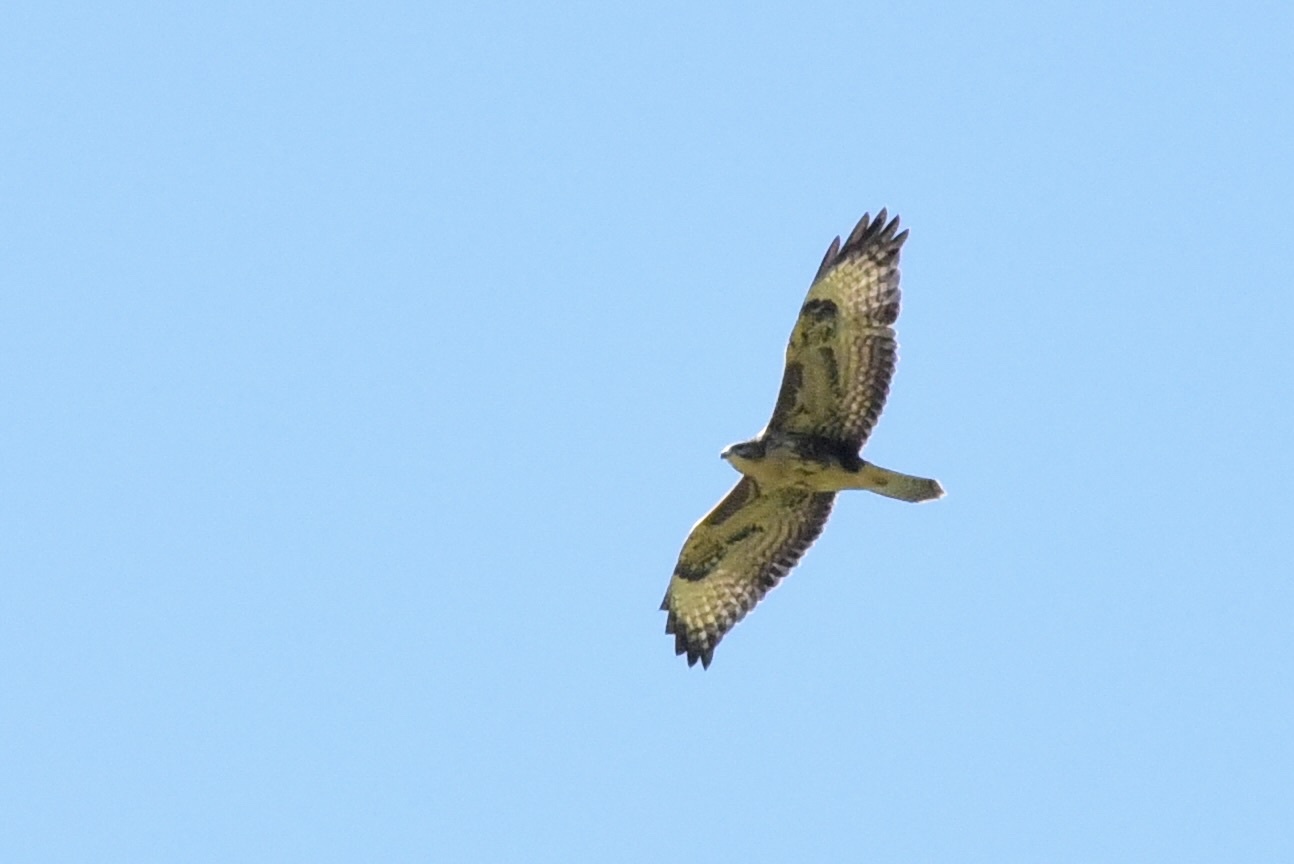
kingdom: Animalia
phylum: Chordata
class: Aves
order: Accipitriformes
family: Accipitridae
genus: Buteo
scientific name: Buteo buteo
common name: Common buzzard
